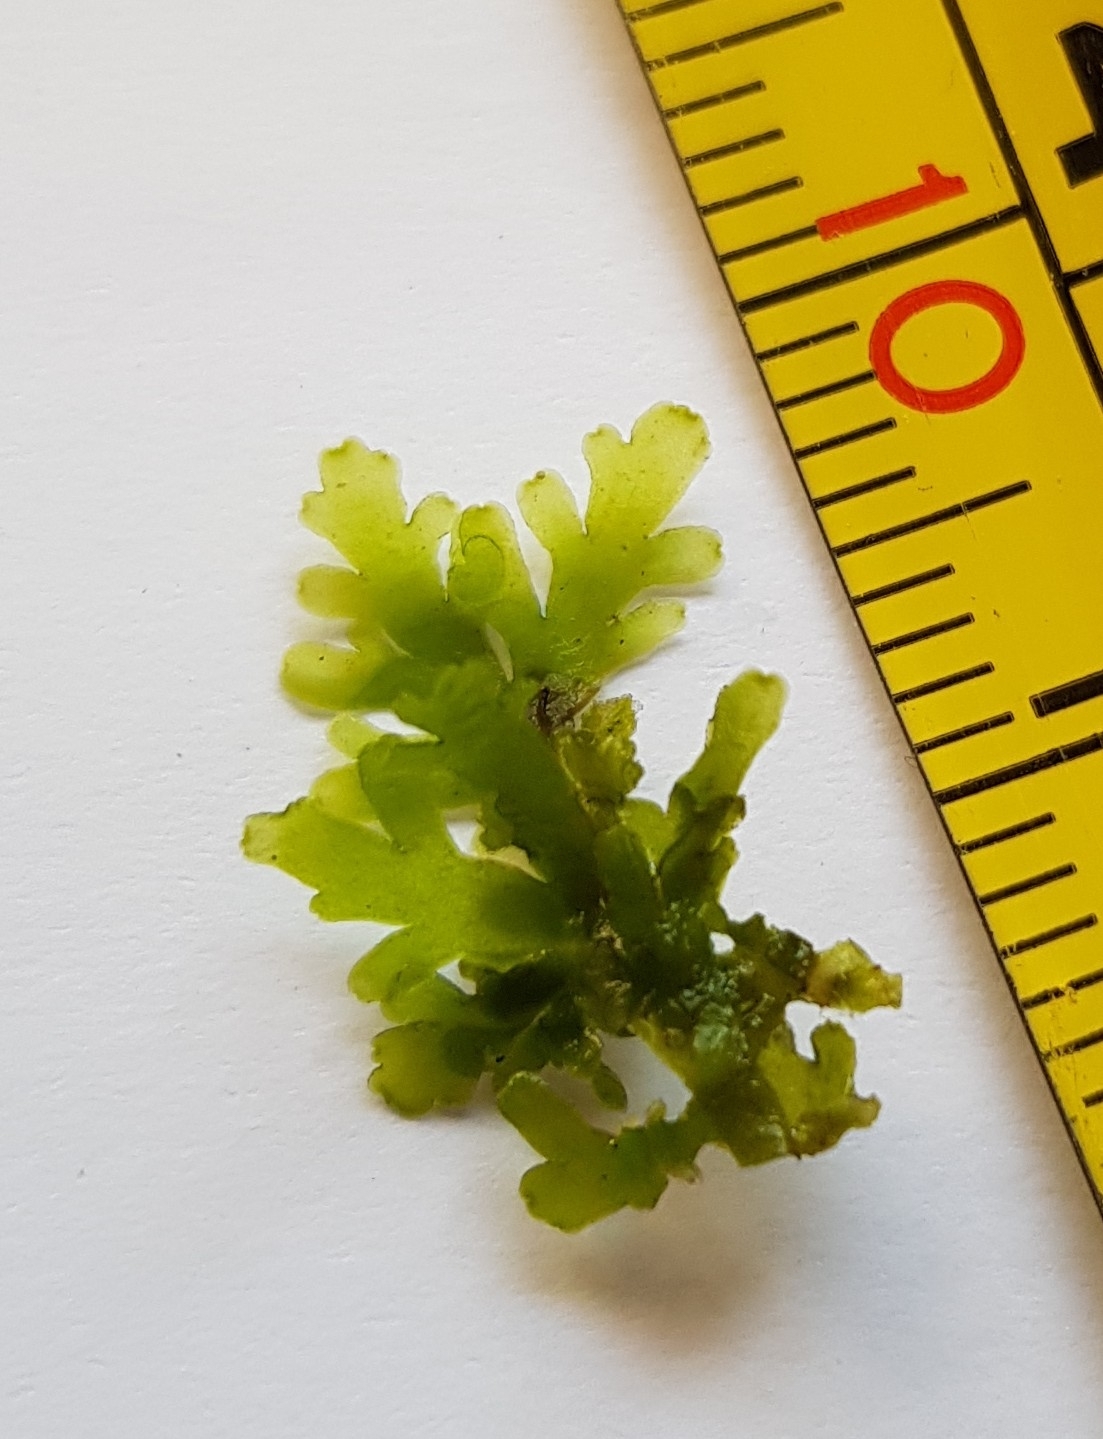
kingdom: Plantae
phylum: Marchantiophyta
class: Jungermanniopsida
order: Metzgeriales
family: Aneuraceae
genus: Riccardia
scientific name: Riccardia multifida
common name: Delicate germanderwort
